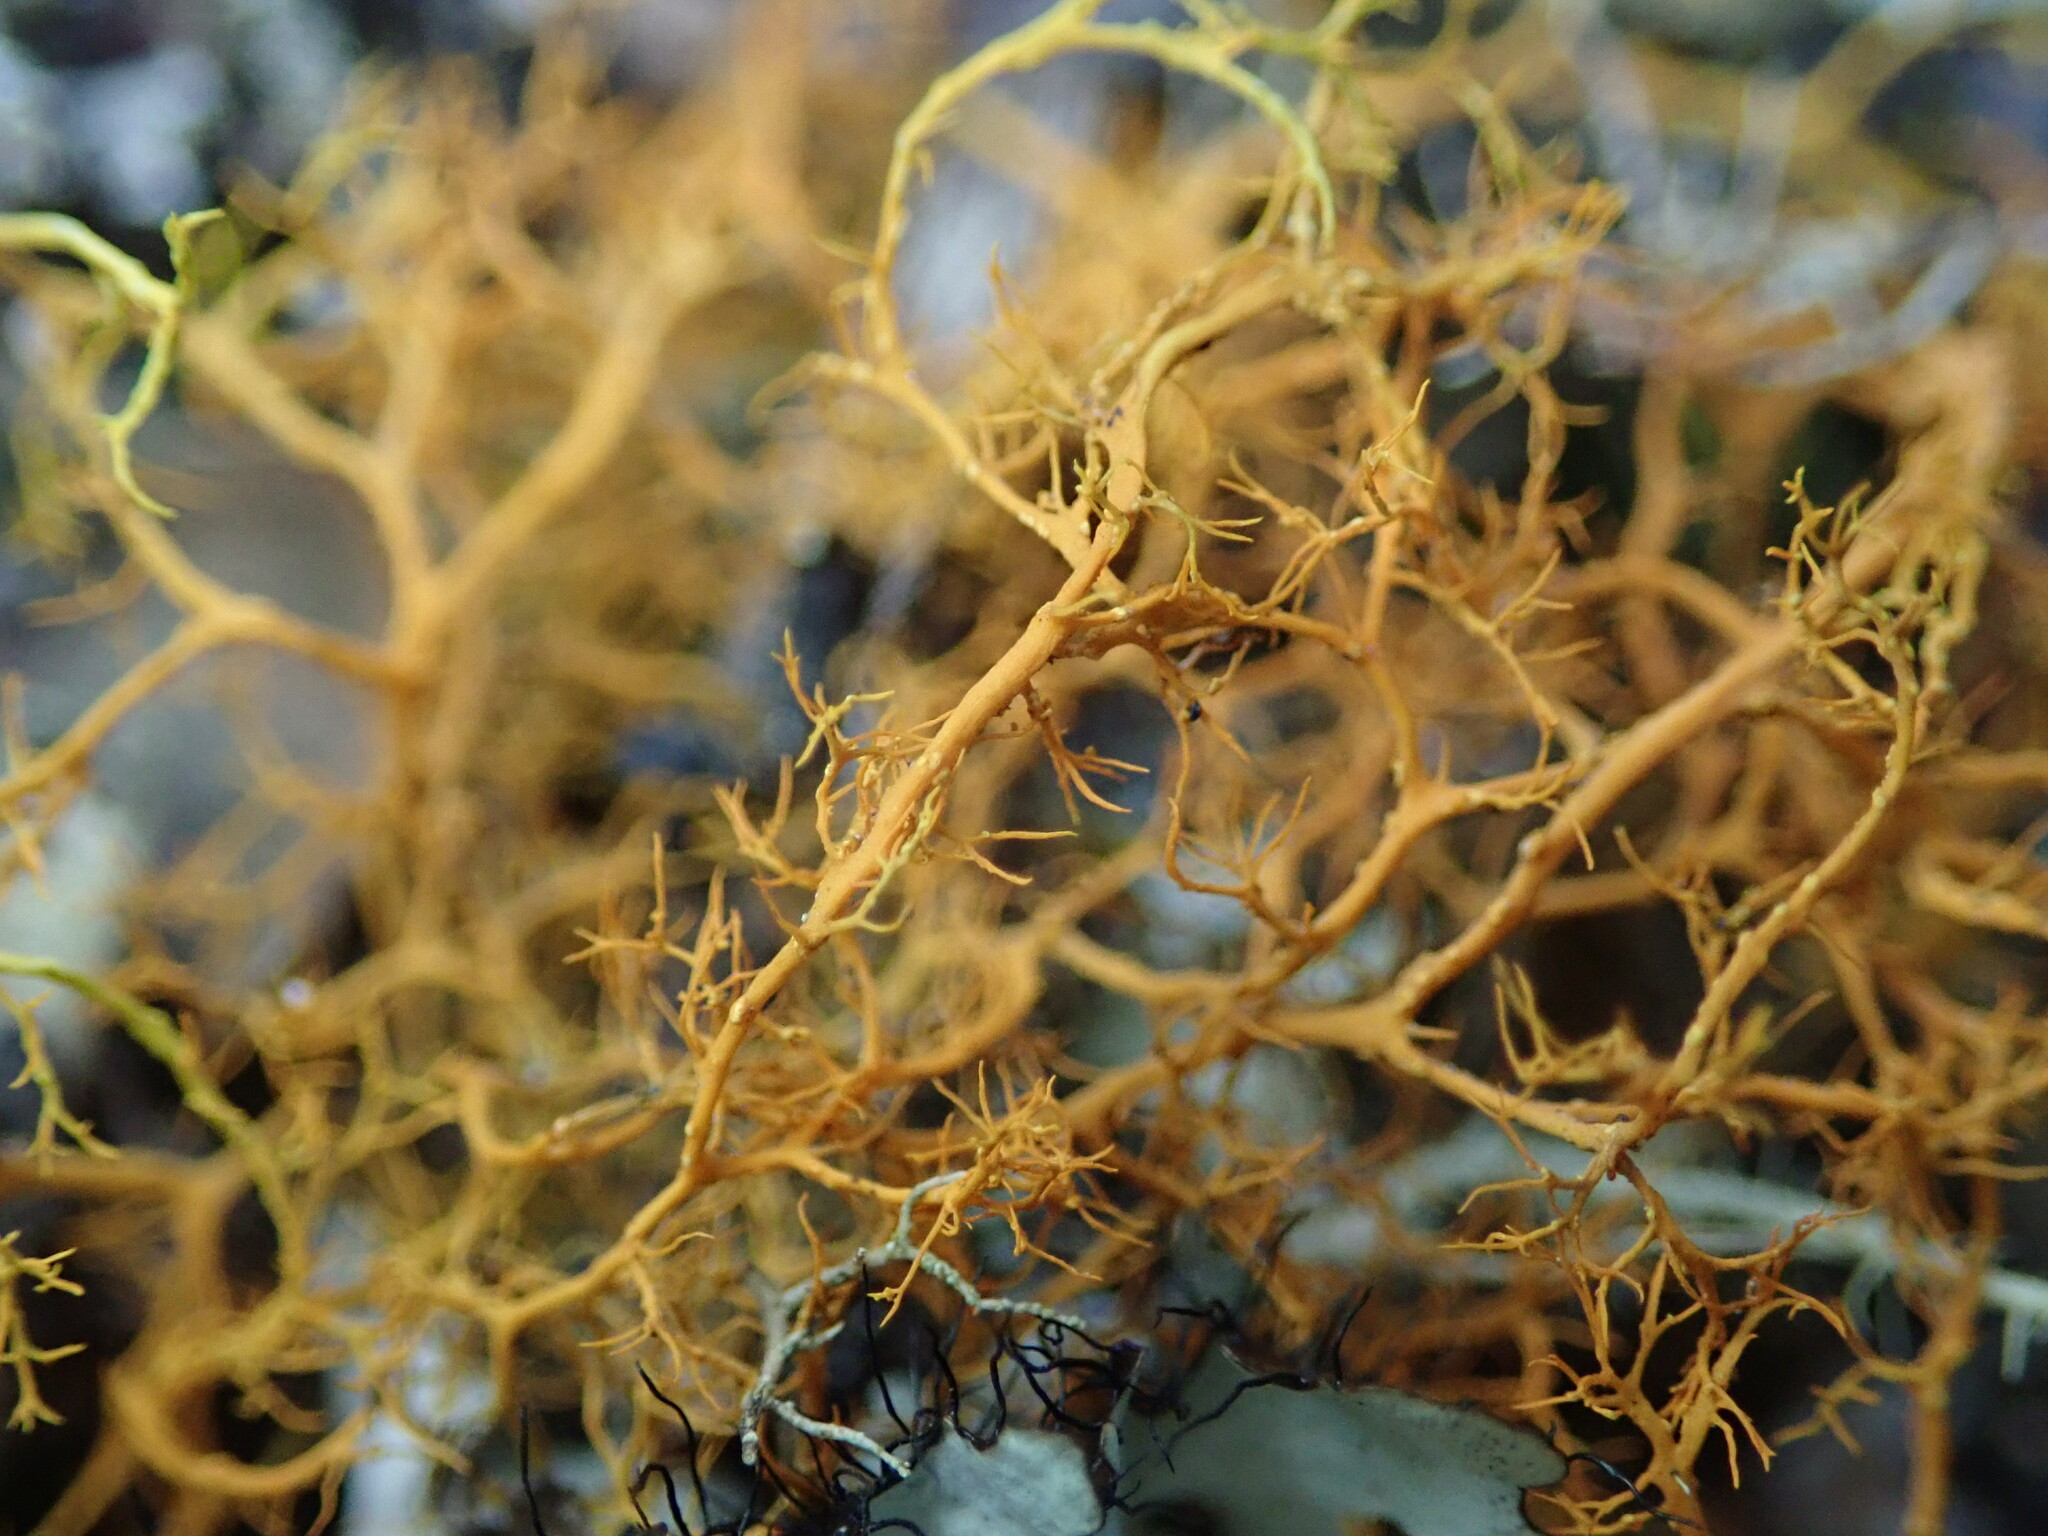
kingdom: Fungi
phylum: Ascomycota
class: Lecanoromycetes
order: Teloschistales
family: Teloschistaceae
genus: Teloschistes
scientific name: Teloschistes flavicans
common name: Golden hair-lichen
